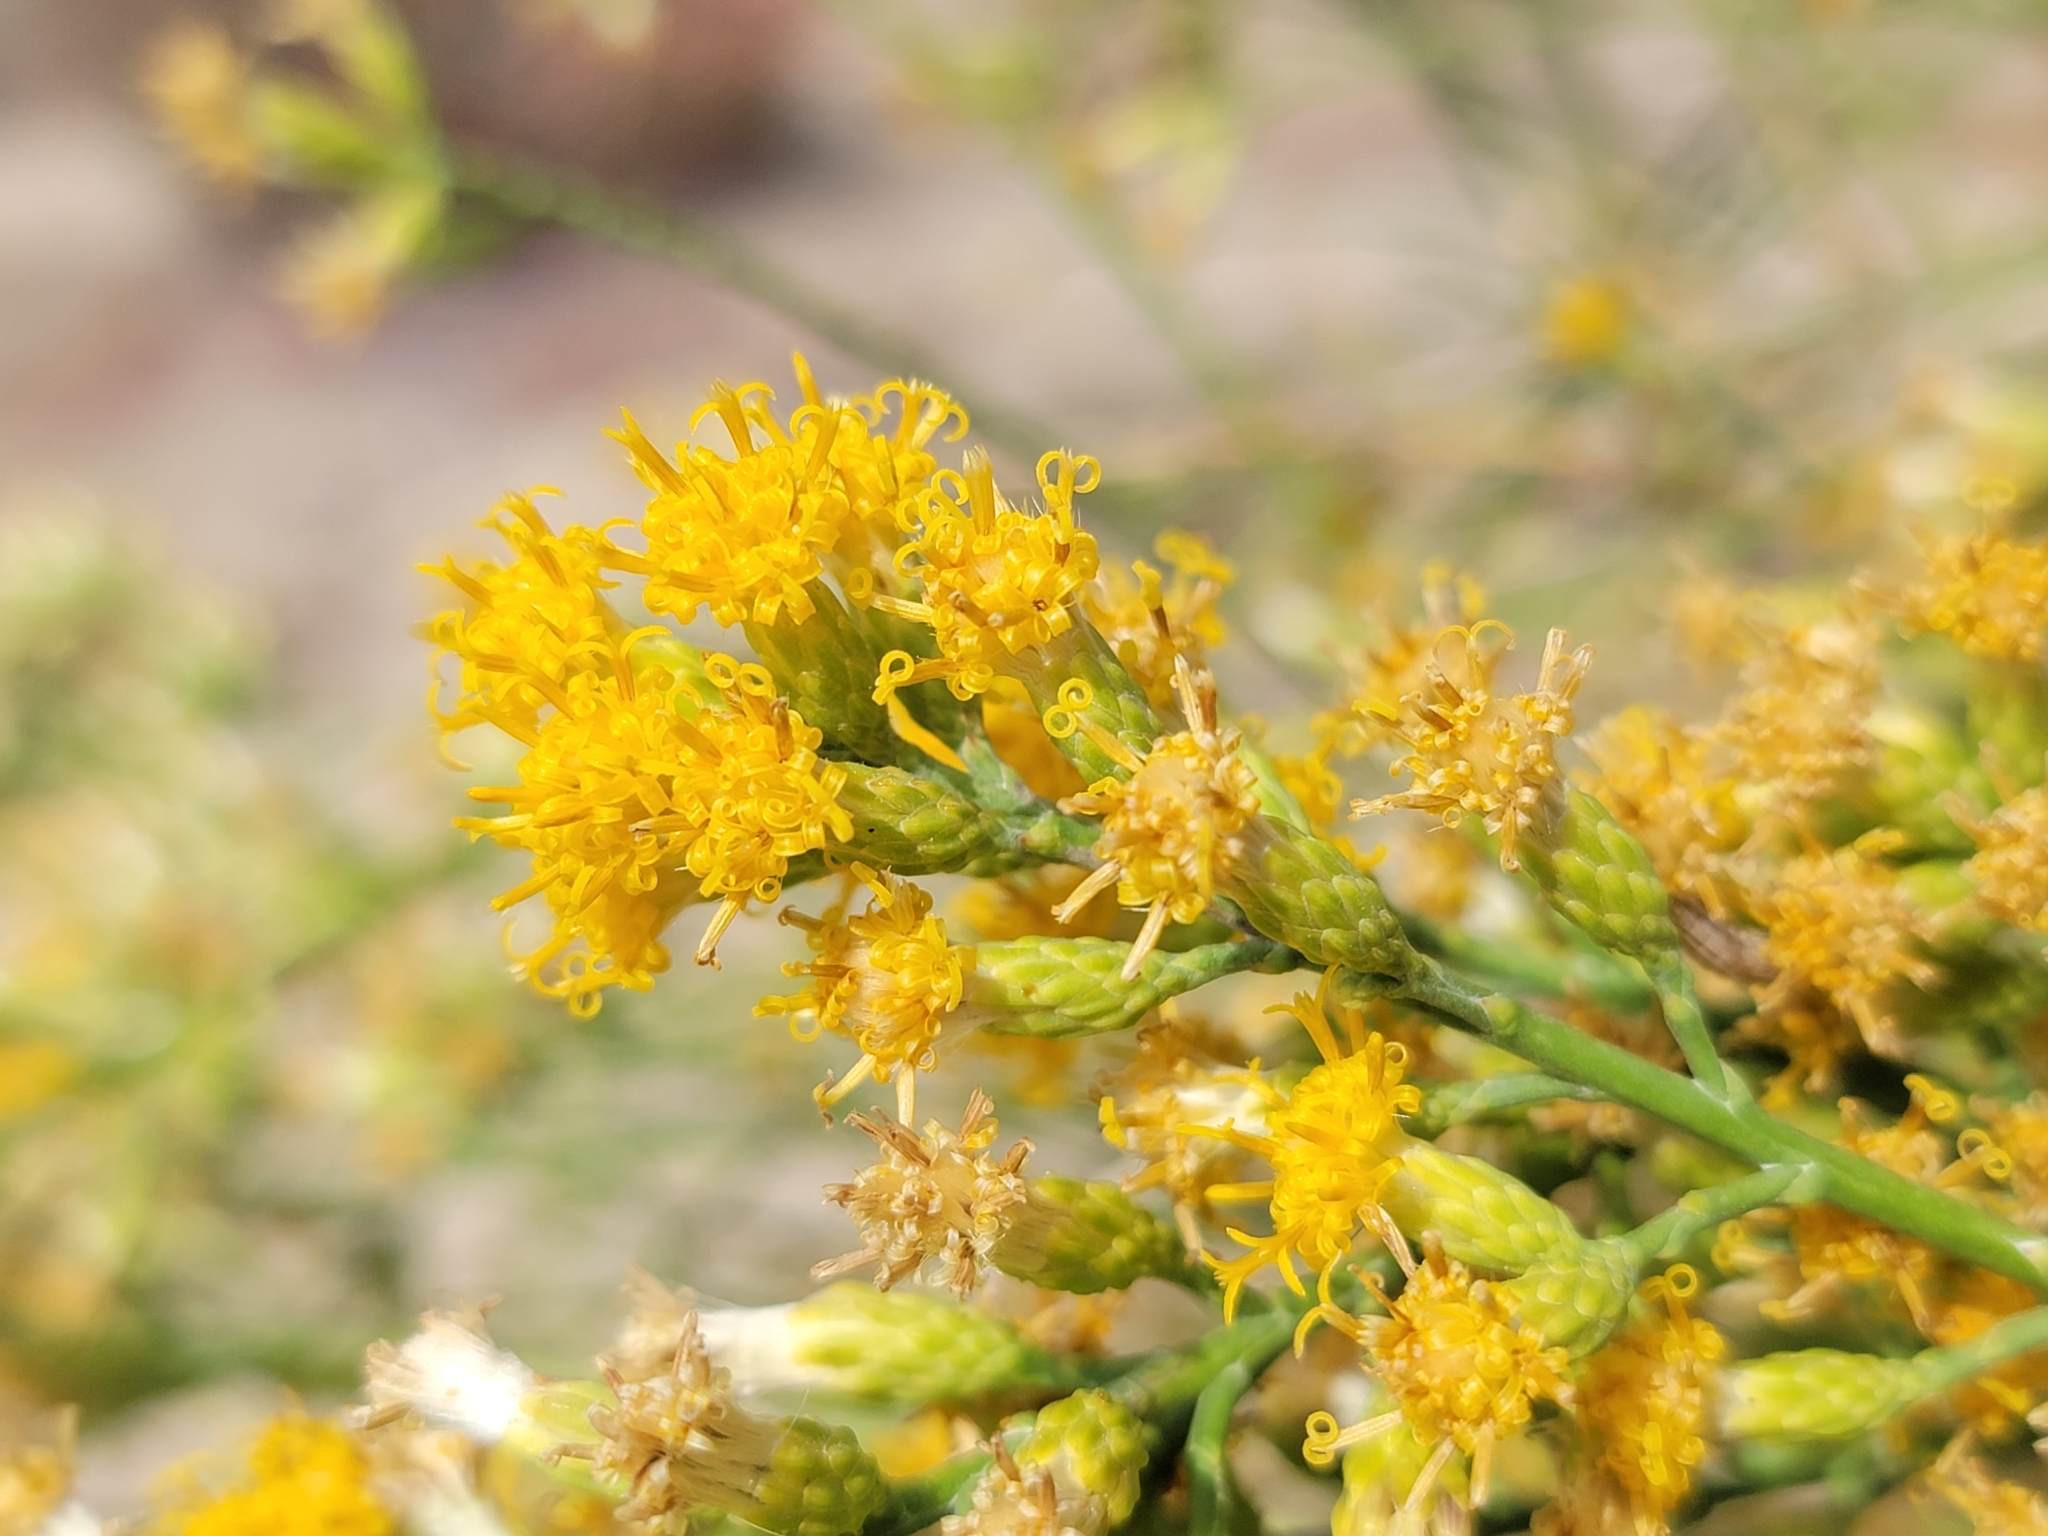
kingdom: Plantae
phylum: Tracheophyta
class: Magnoliopsida
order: Asterales
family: Asteraceae
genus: Lepidospartum
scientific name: Lepidospartum squamatum
